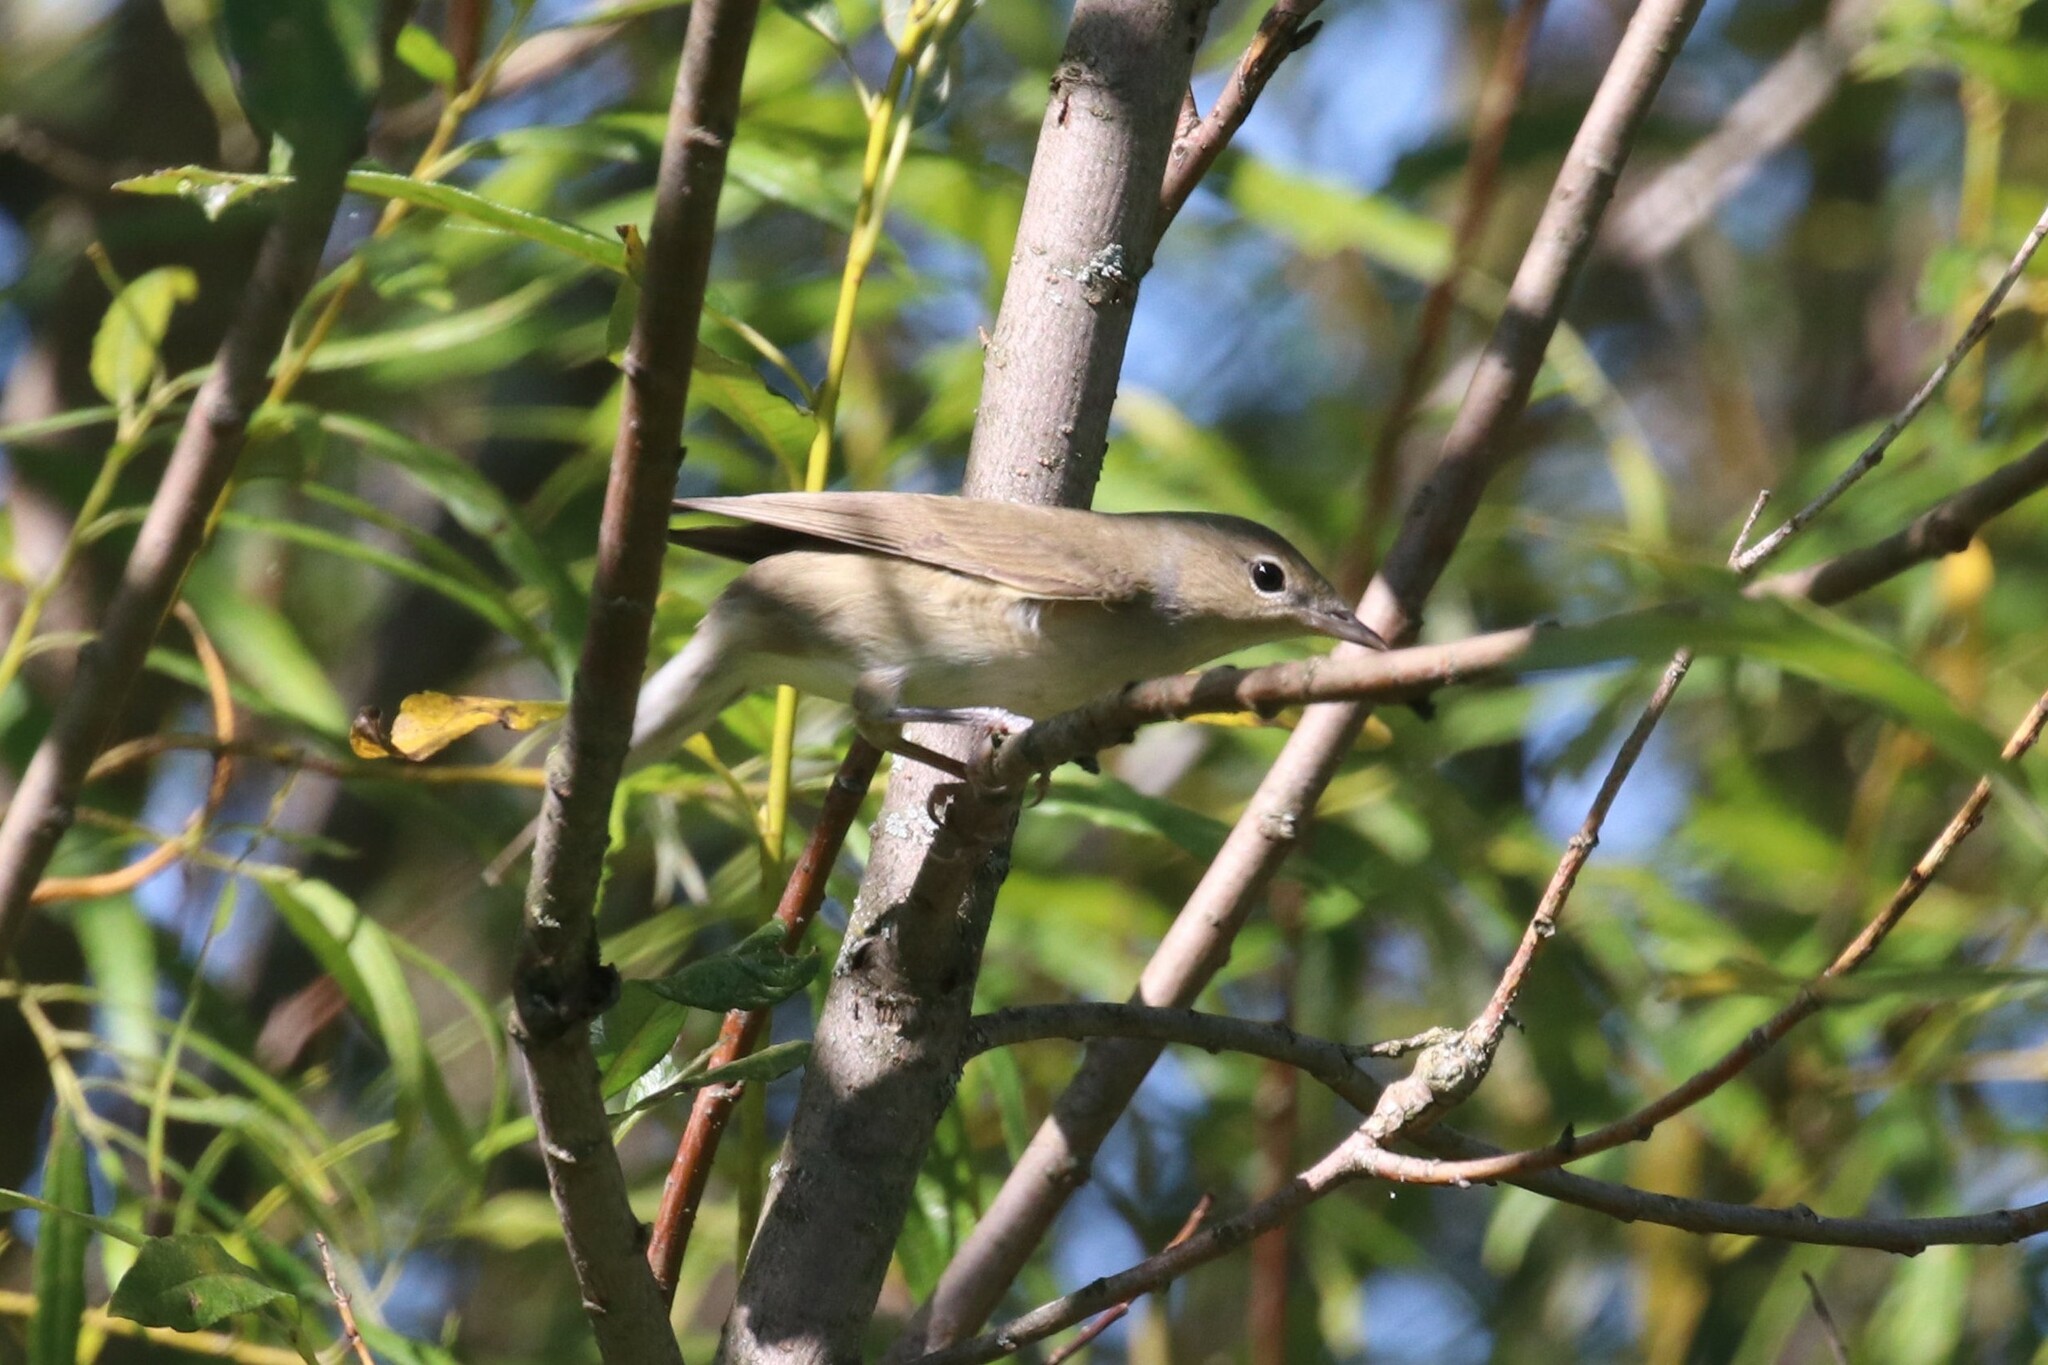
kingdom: Animalia
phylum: Chordata
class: Aves
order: Passeriformes
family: Sylviidae
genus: Sylvia
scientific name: Sylvia borin
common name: Garden warbler
